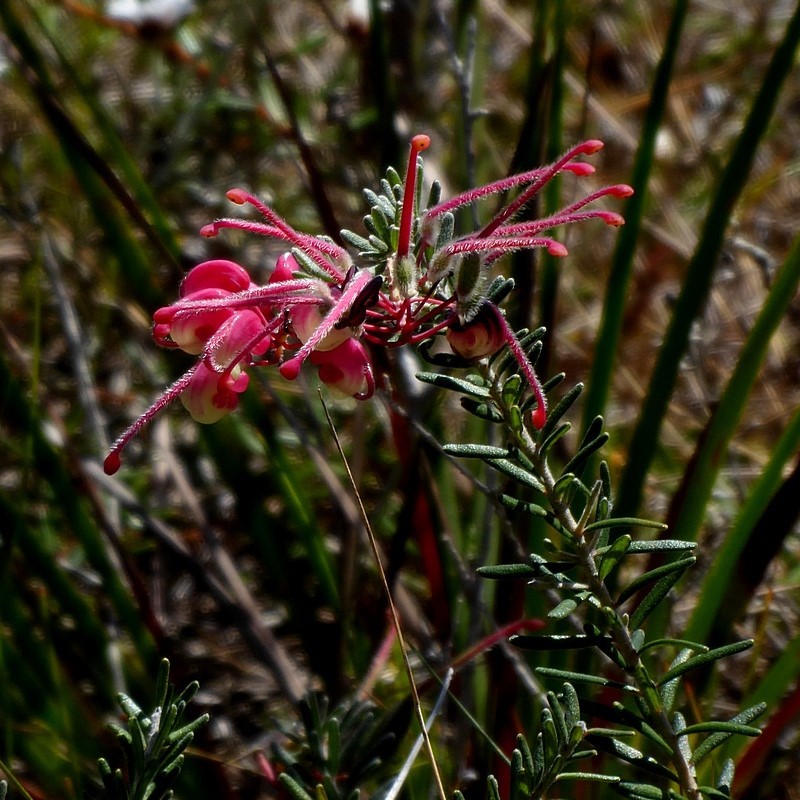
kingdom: Plantae
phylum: Tracheophyta
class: Magnoliopsida
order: Proteales
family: Proteaceae
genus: Grevillea
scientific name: Grevillea lanigera
